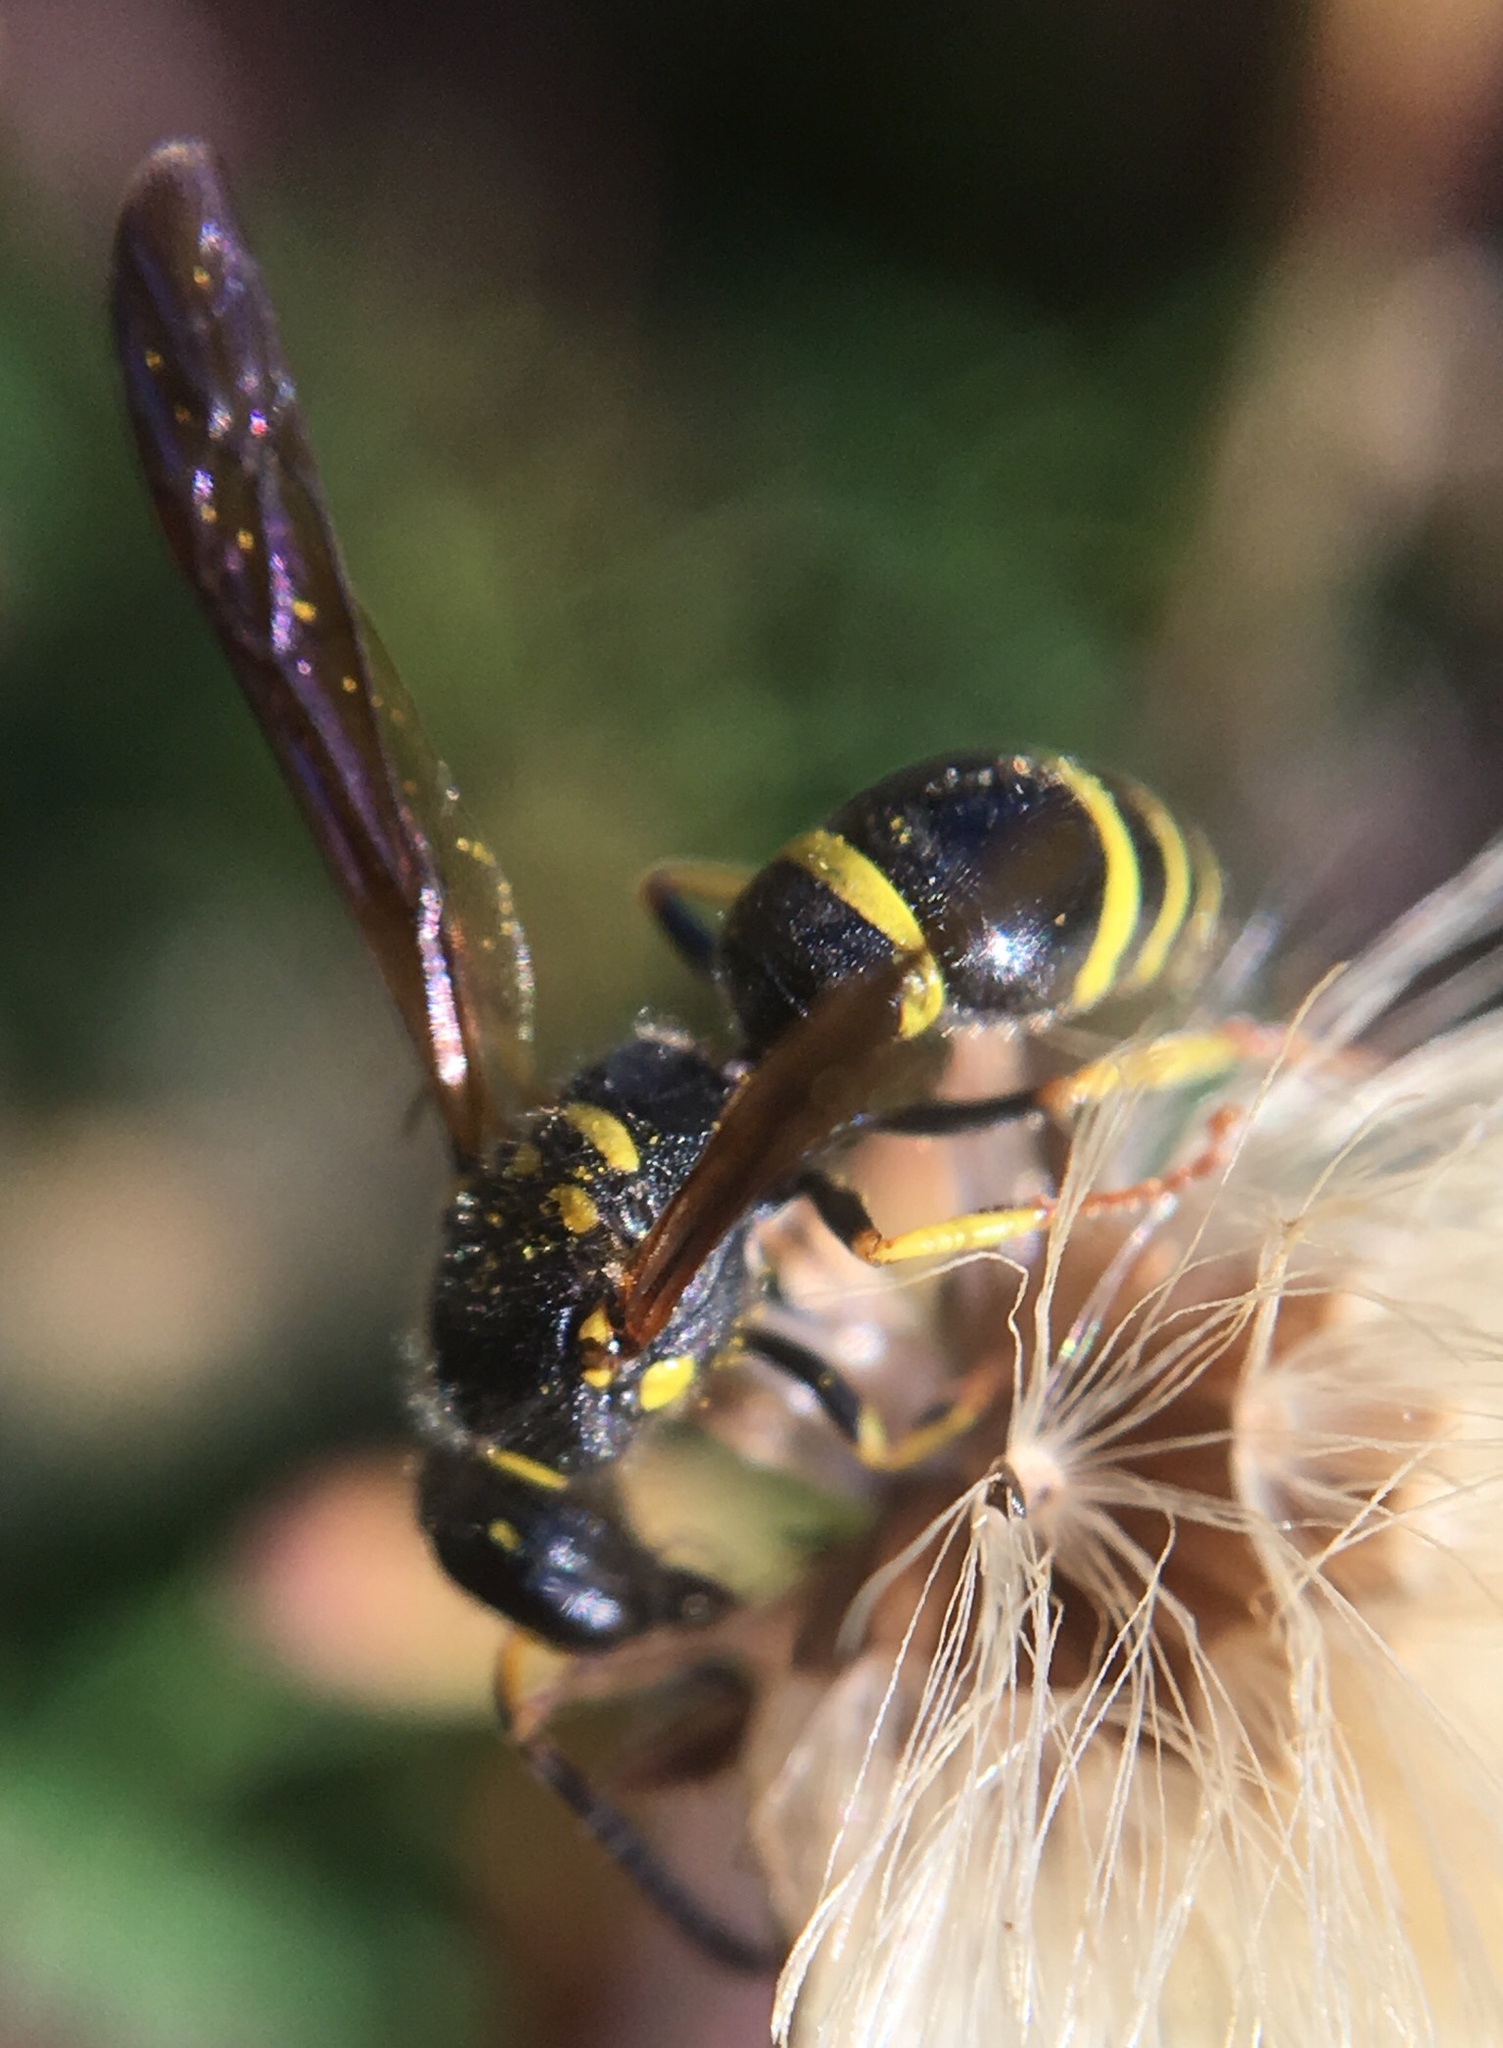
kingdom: Animalia
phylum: Arthropoda
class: Insecta
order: Hymenoptera
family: Vespidae
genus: Ancistrocerus
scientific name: Ancistrocerus adiabatus
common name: Bramble mason wasp
